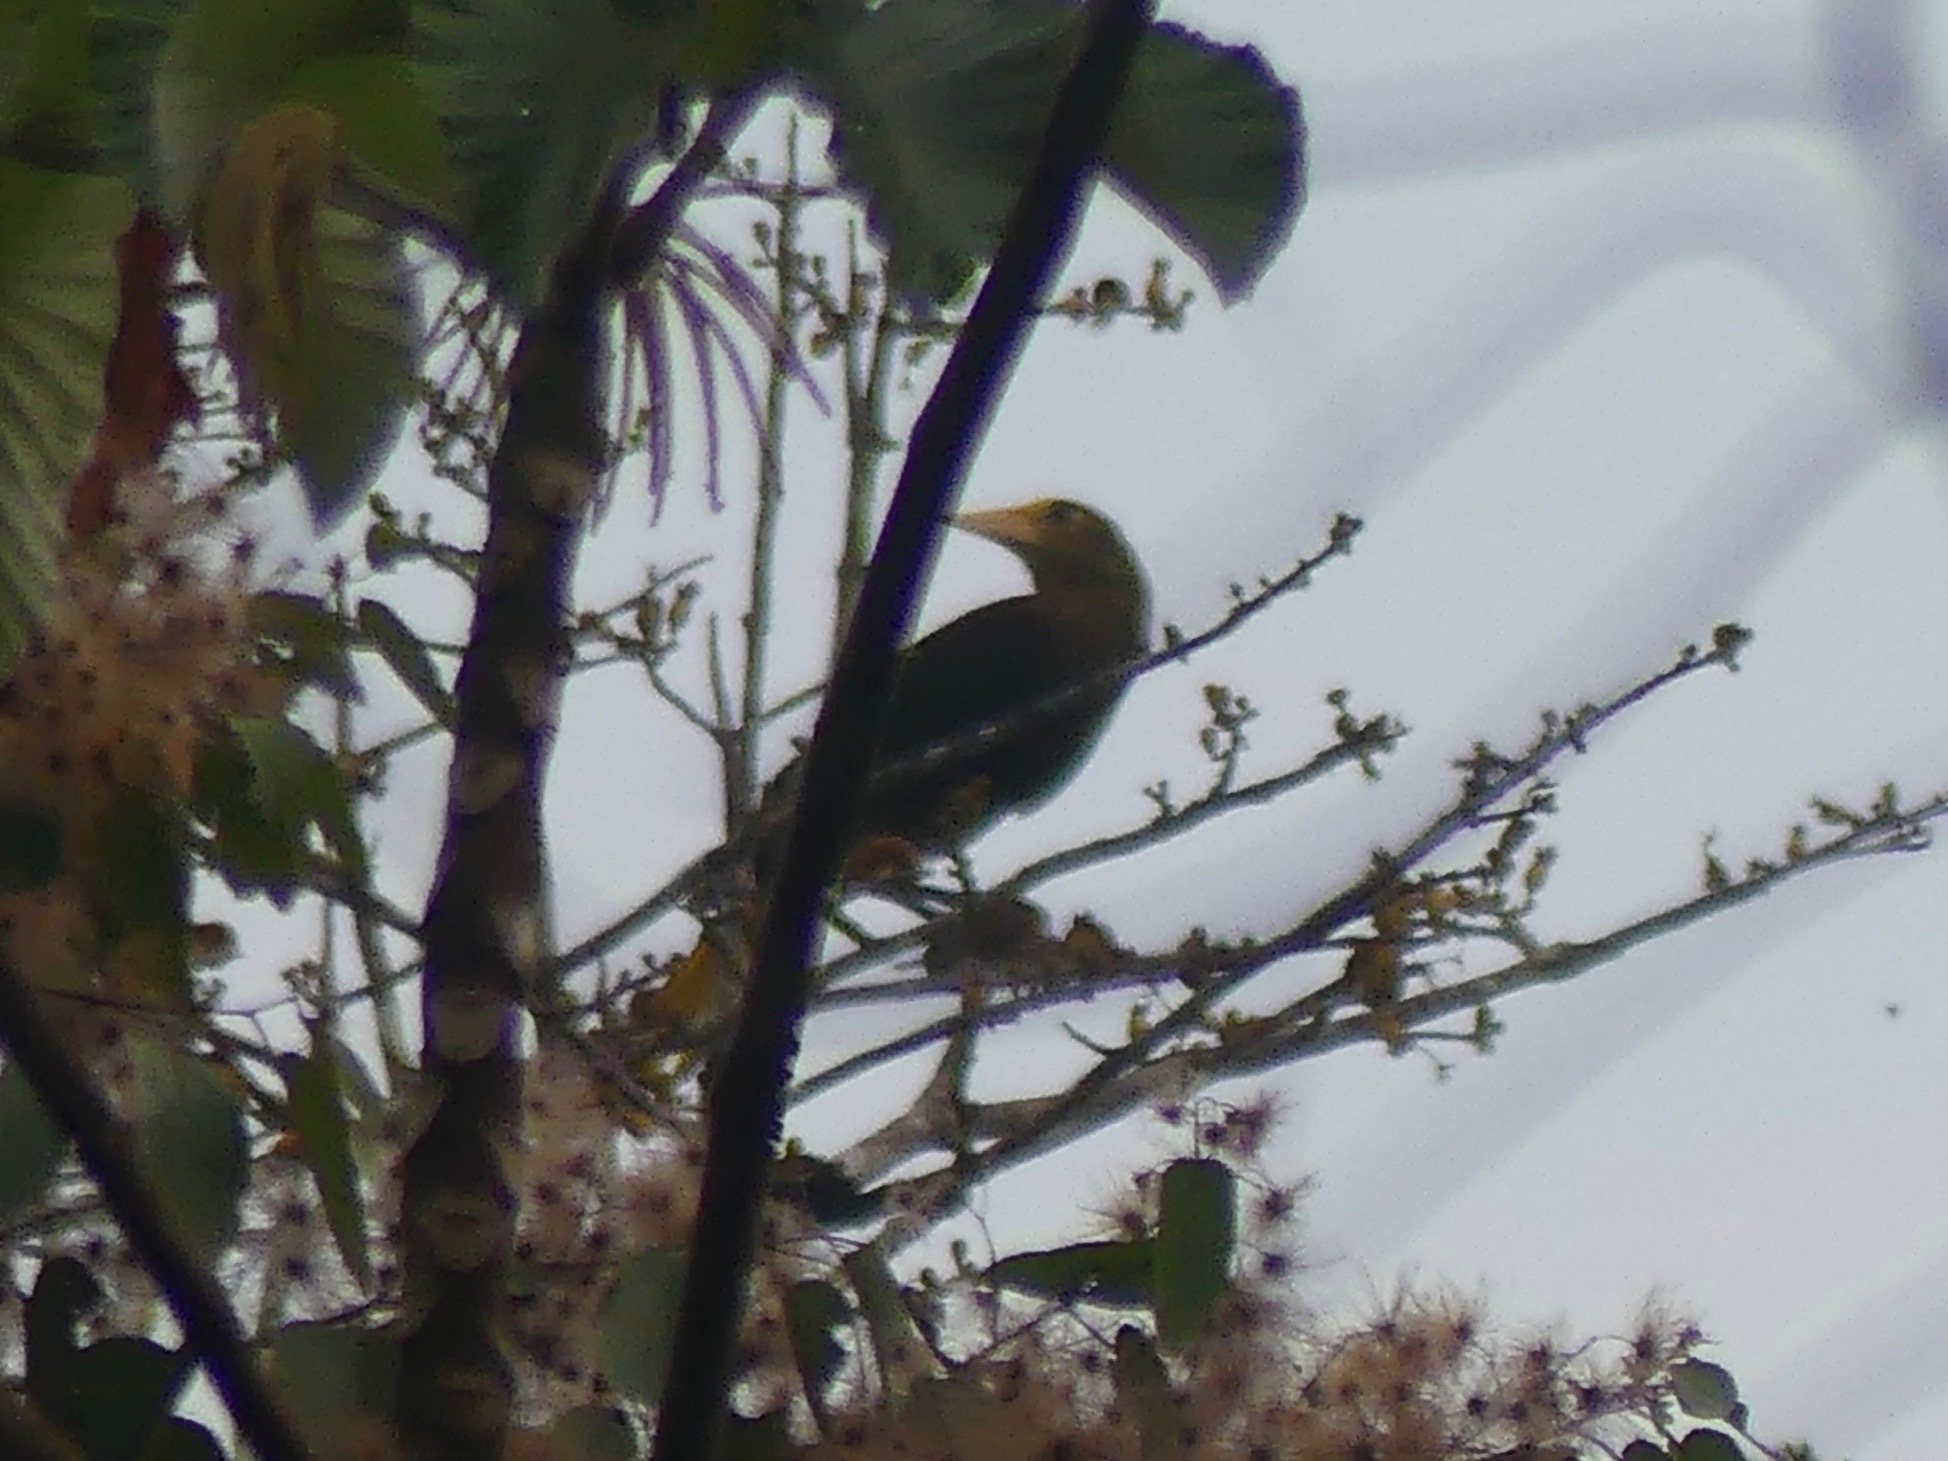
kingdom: Animalia
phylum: Chordata
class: Aves
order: Passeriformes
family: Icteridae
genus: Psarocolius
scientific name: Psarocolius angustifrons
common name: Russet-backed oropendola
